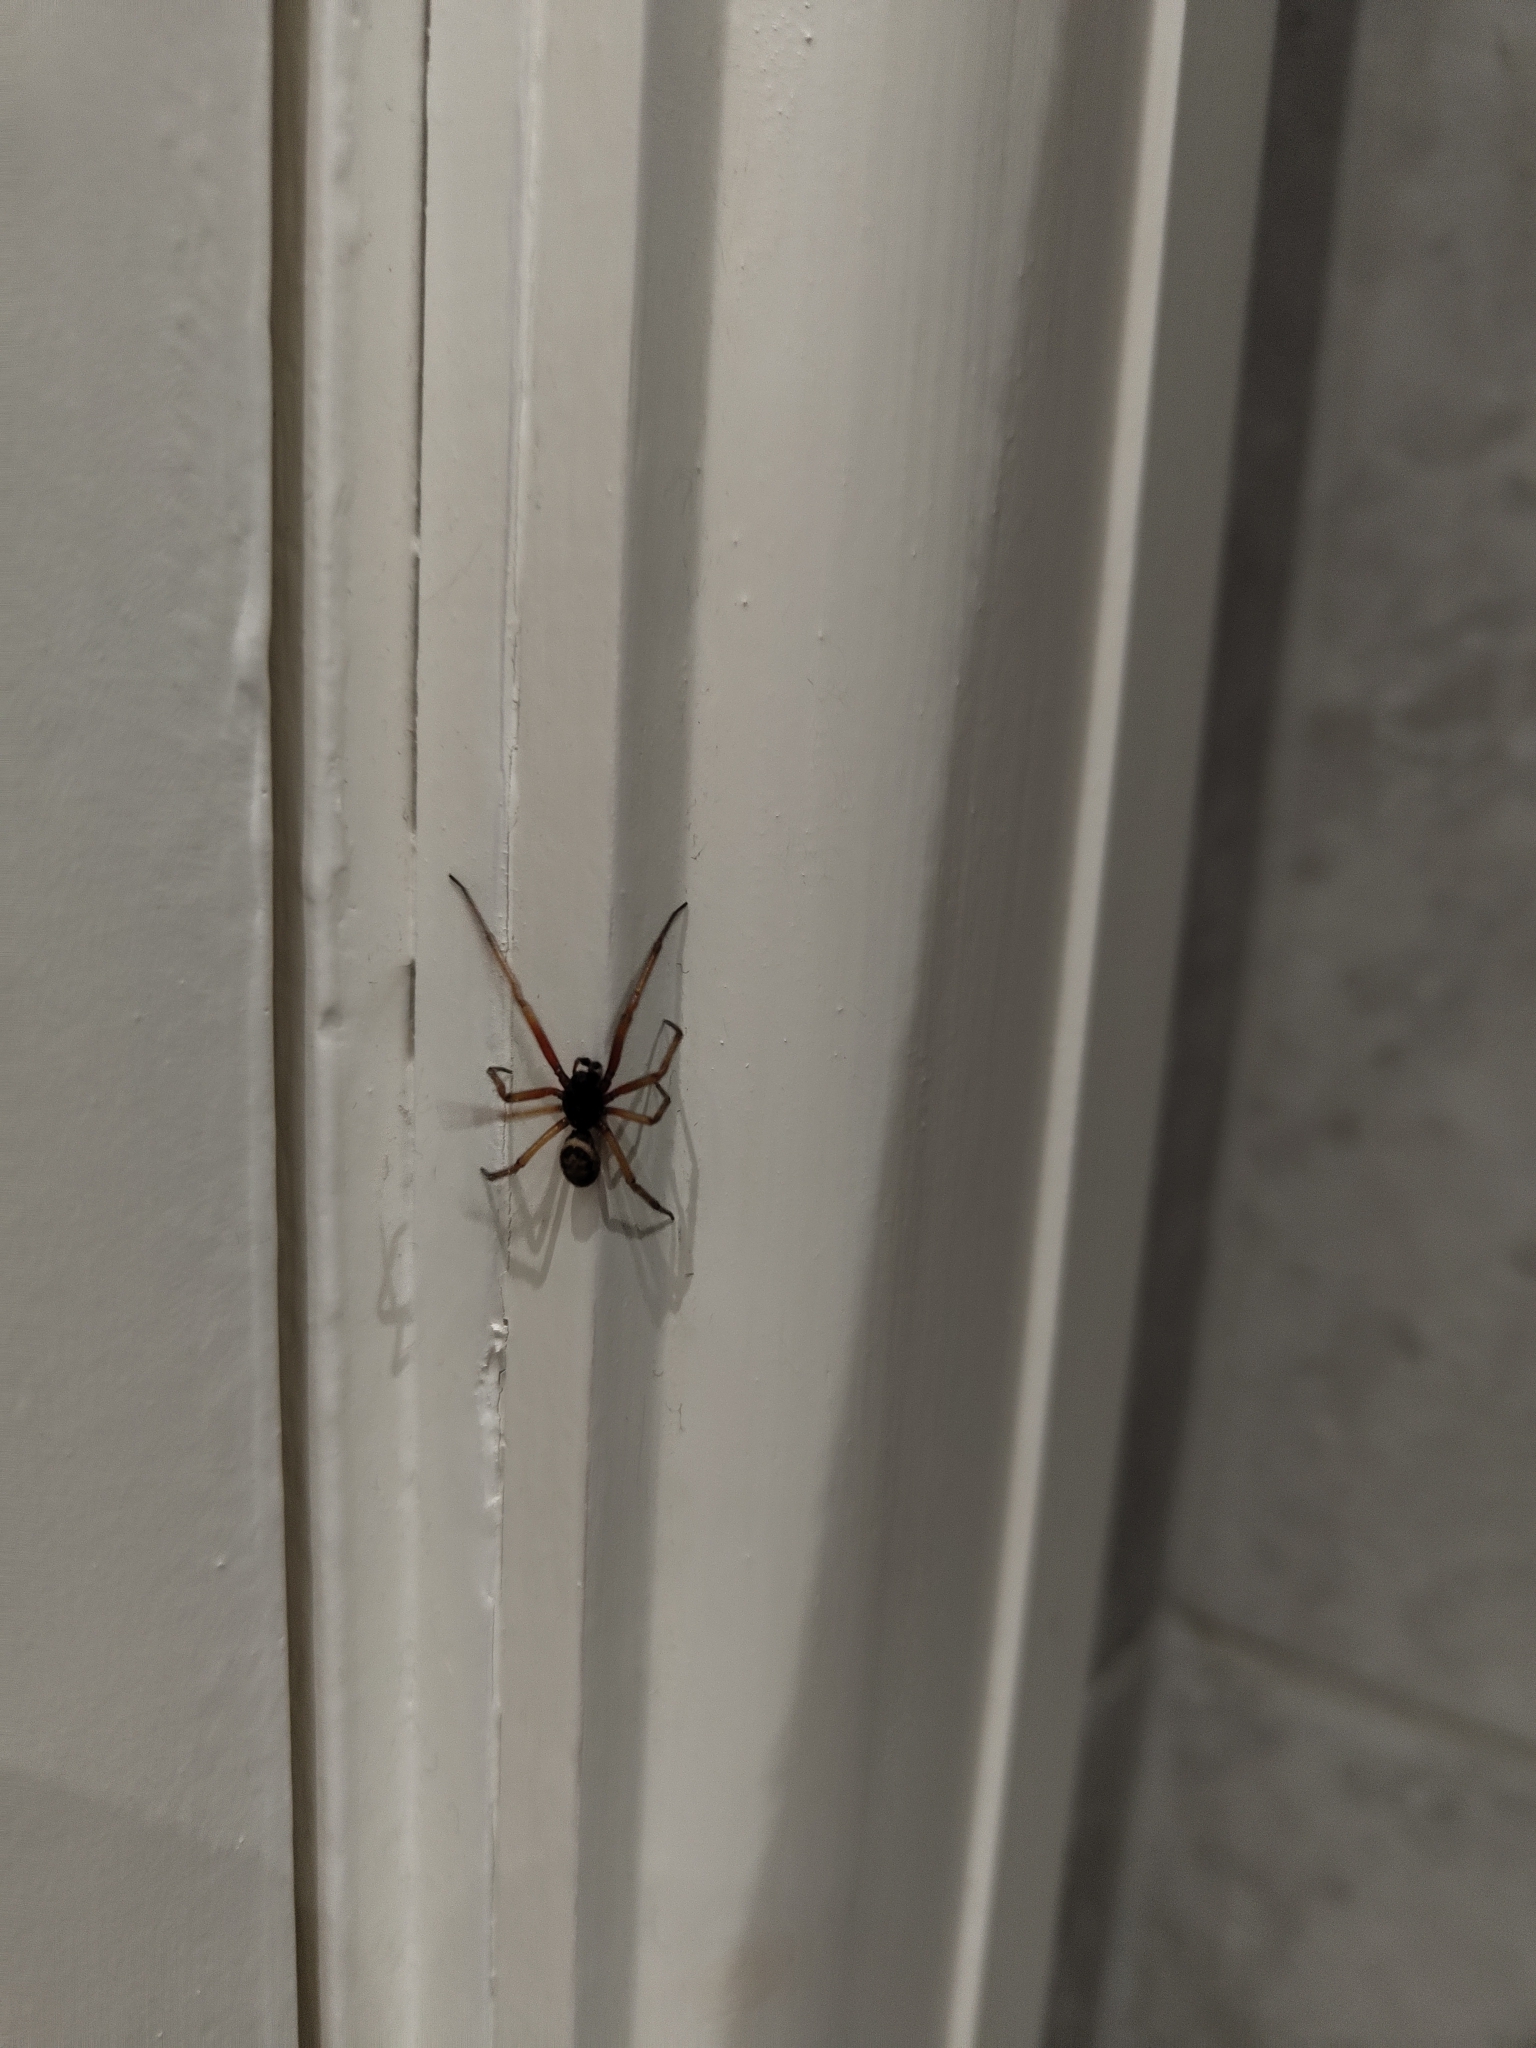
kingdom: Animalia
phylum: Arthropoda
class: Arachnida
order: Araneae
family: Theridiidae
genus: Steatoda
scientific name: Steatoda nobilis
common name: Cobweb weaver
